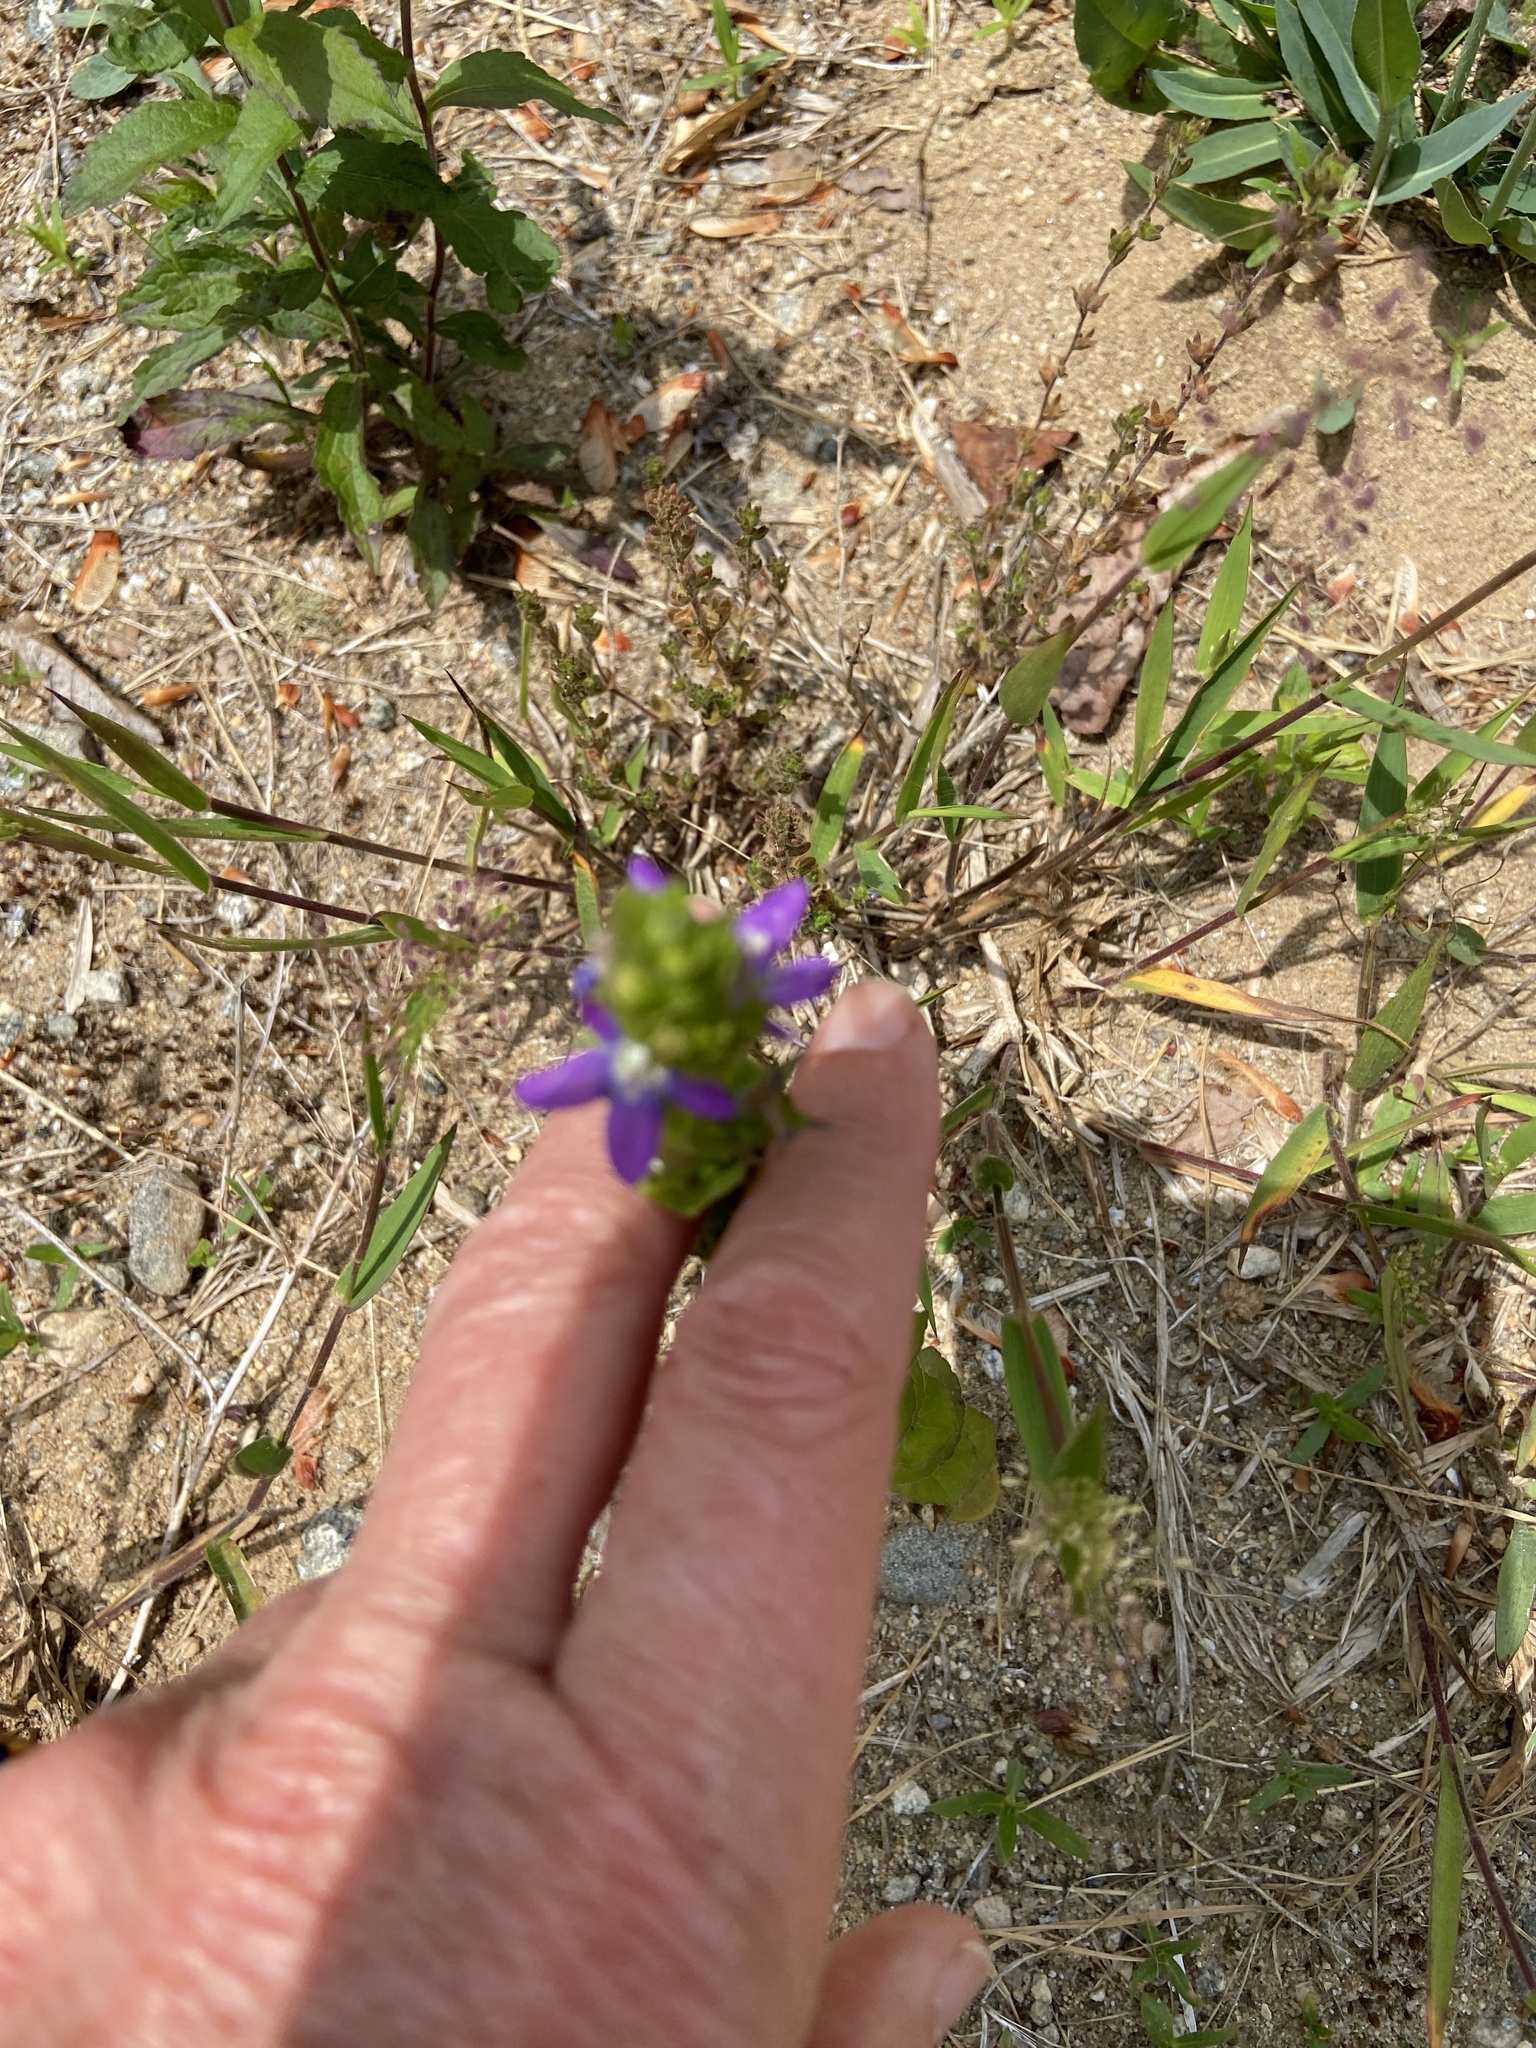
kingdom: Plantae
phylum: Tracheophyta
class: Magnoliopsida
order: Asterales
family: Campanulaceae
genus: Triodanis
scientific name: Triodanis perfoliata
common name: Clasping venus' looking-glass
